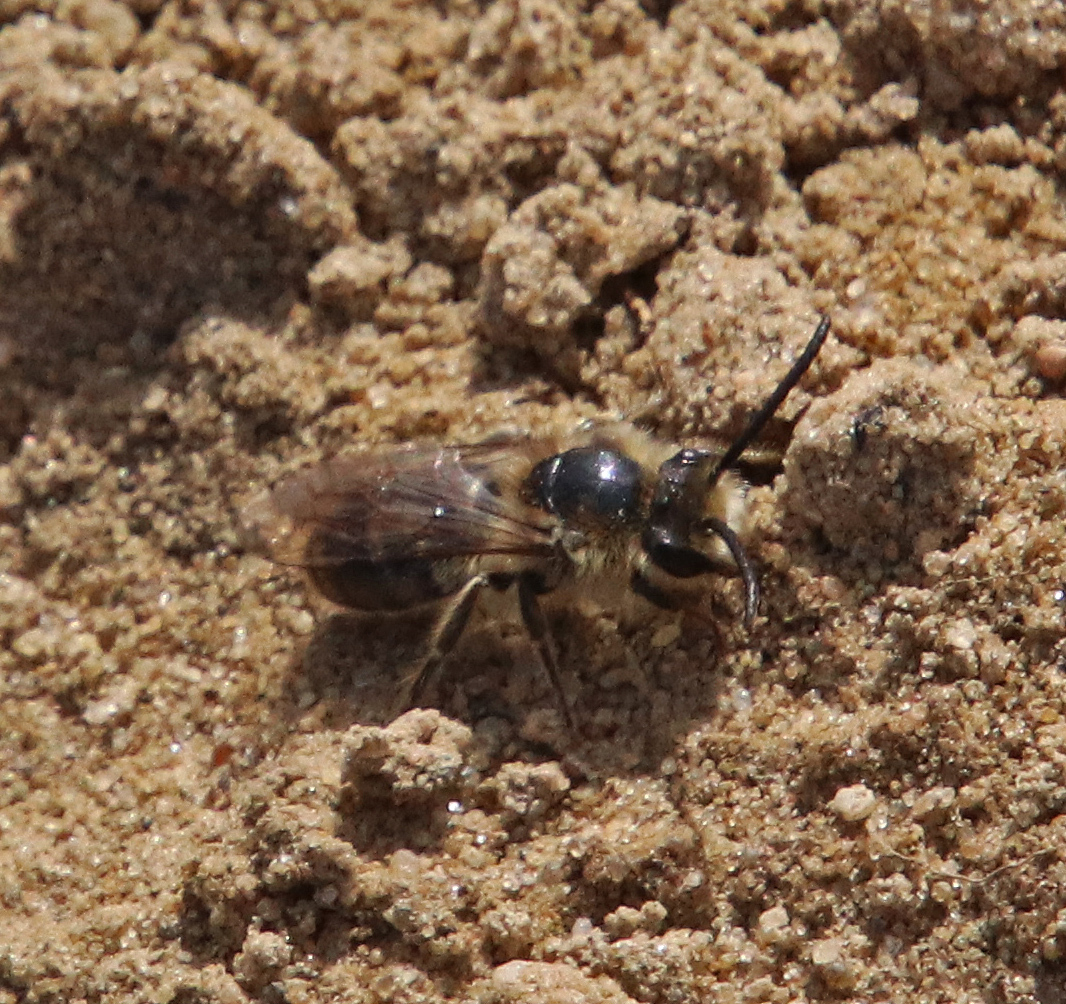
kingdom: Animalia
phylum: Arthropoda
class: Insecta
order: Hymenoptera
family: Colletidae
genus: Colletes
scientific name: Colletes inaequalis
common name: Unequal cellophane bee
